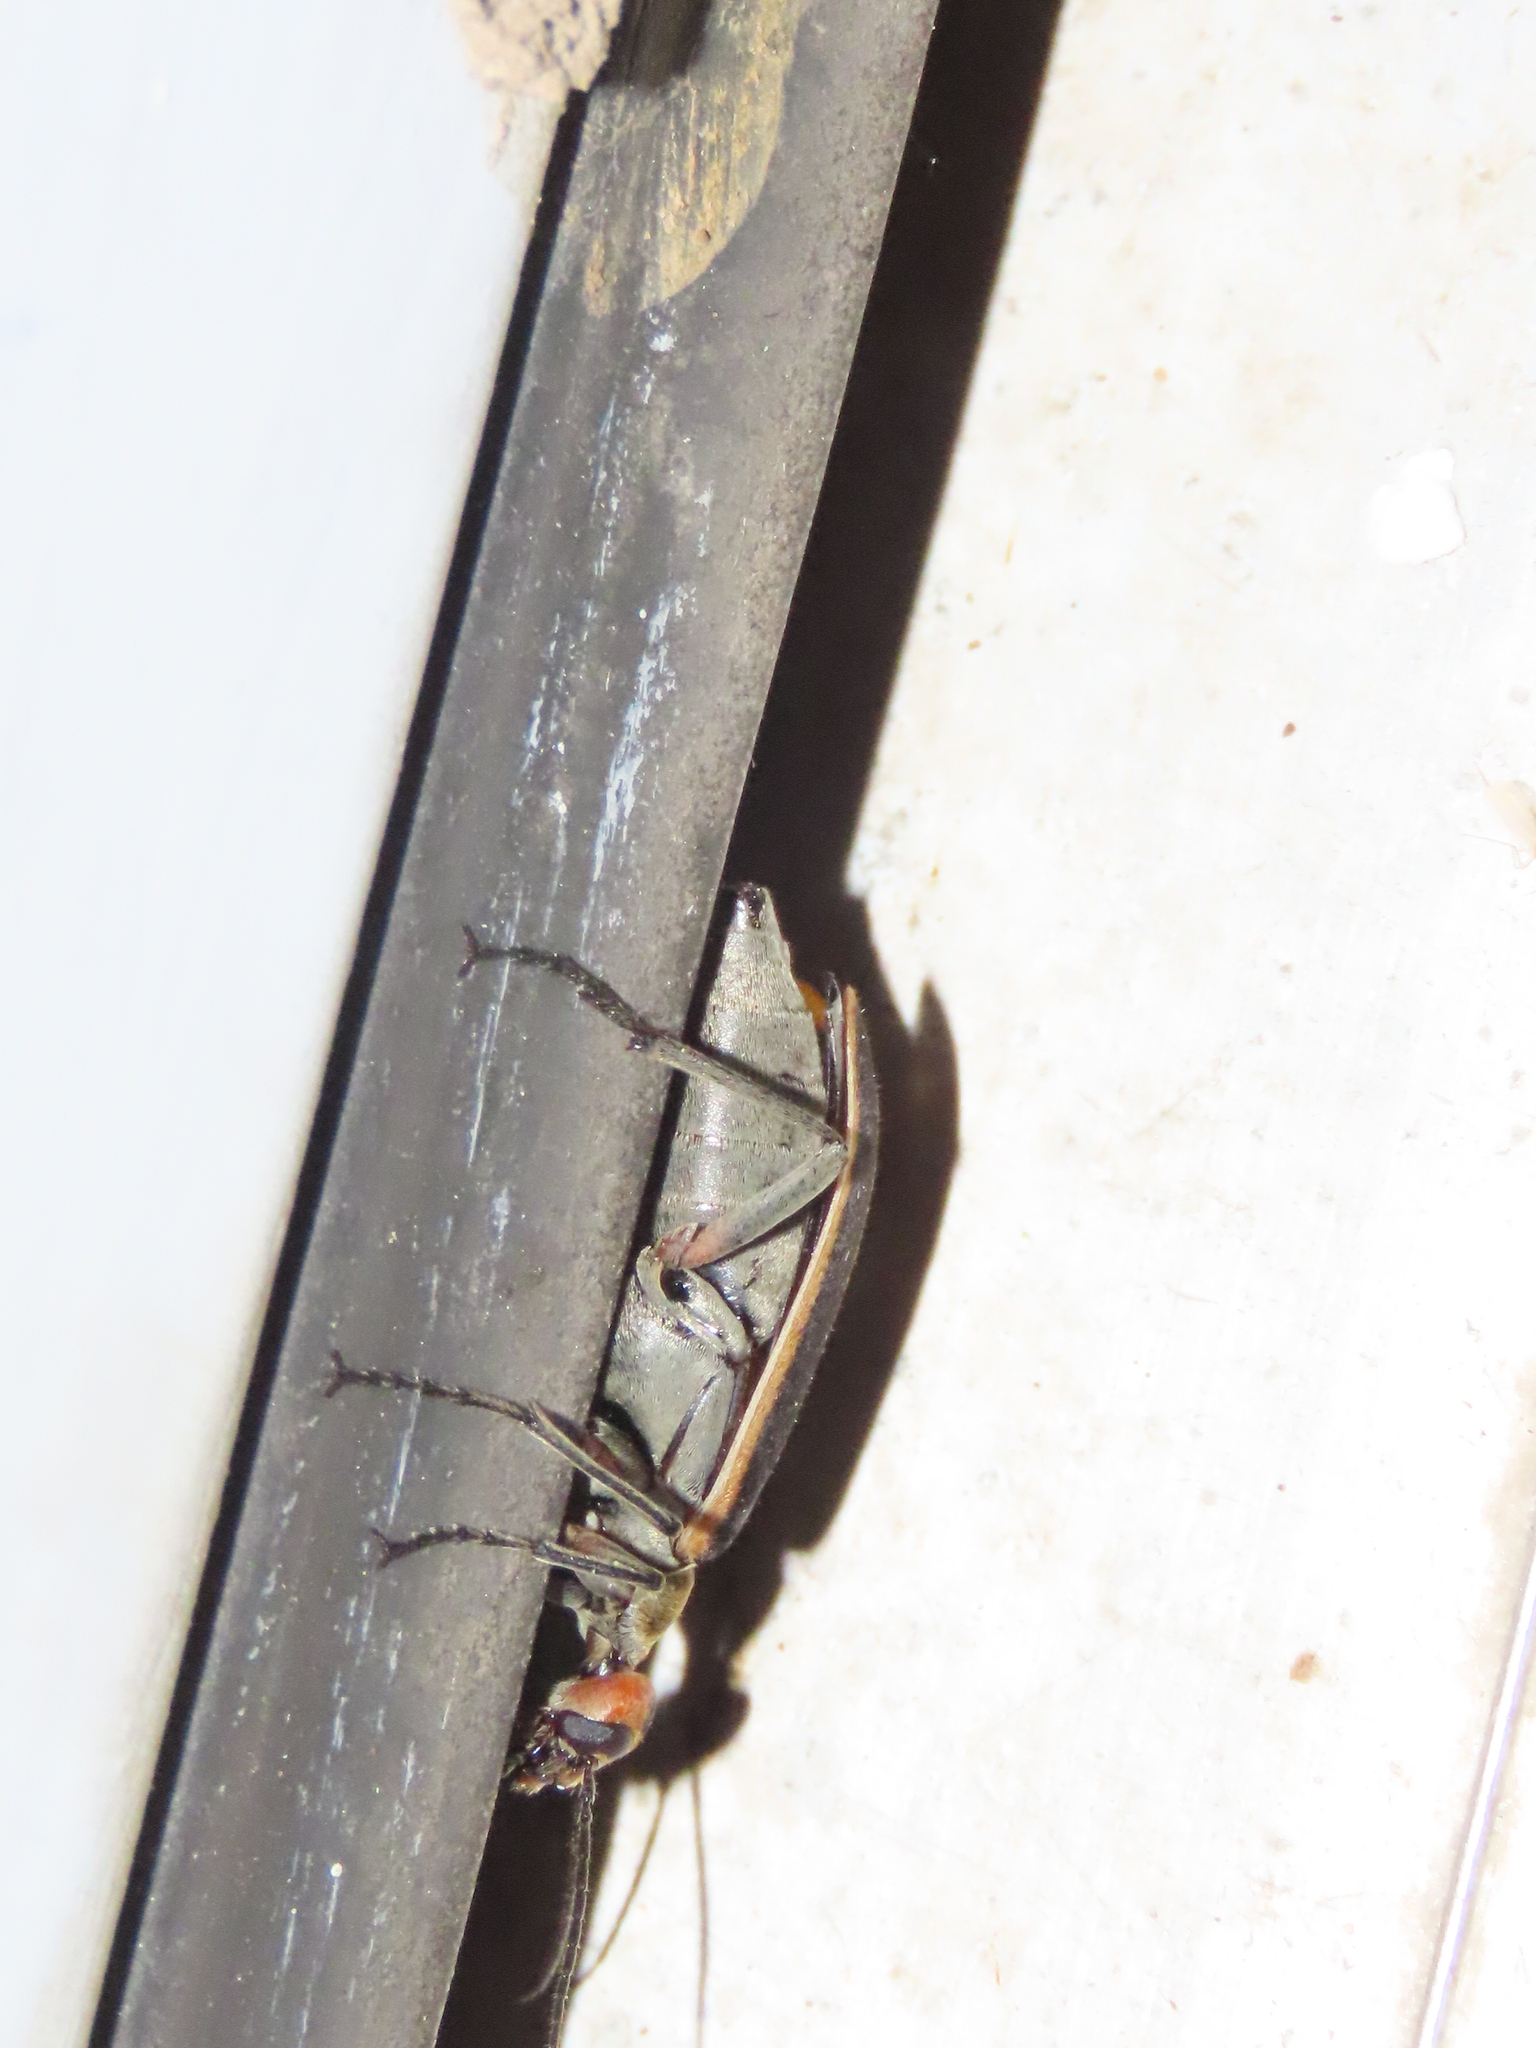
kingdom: Animalia
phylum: Arthropoda
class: Insecta
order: Coleoptera
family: Meloidae
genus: Epicauta
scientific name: Epicauta vittata
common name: Old-fashioned potato beetle
